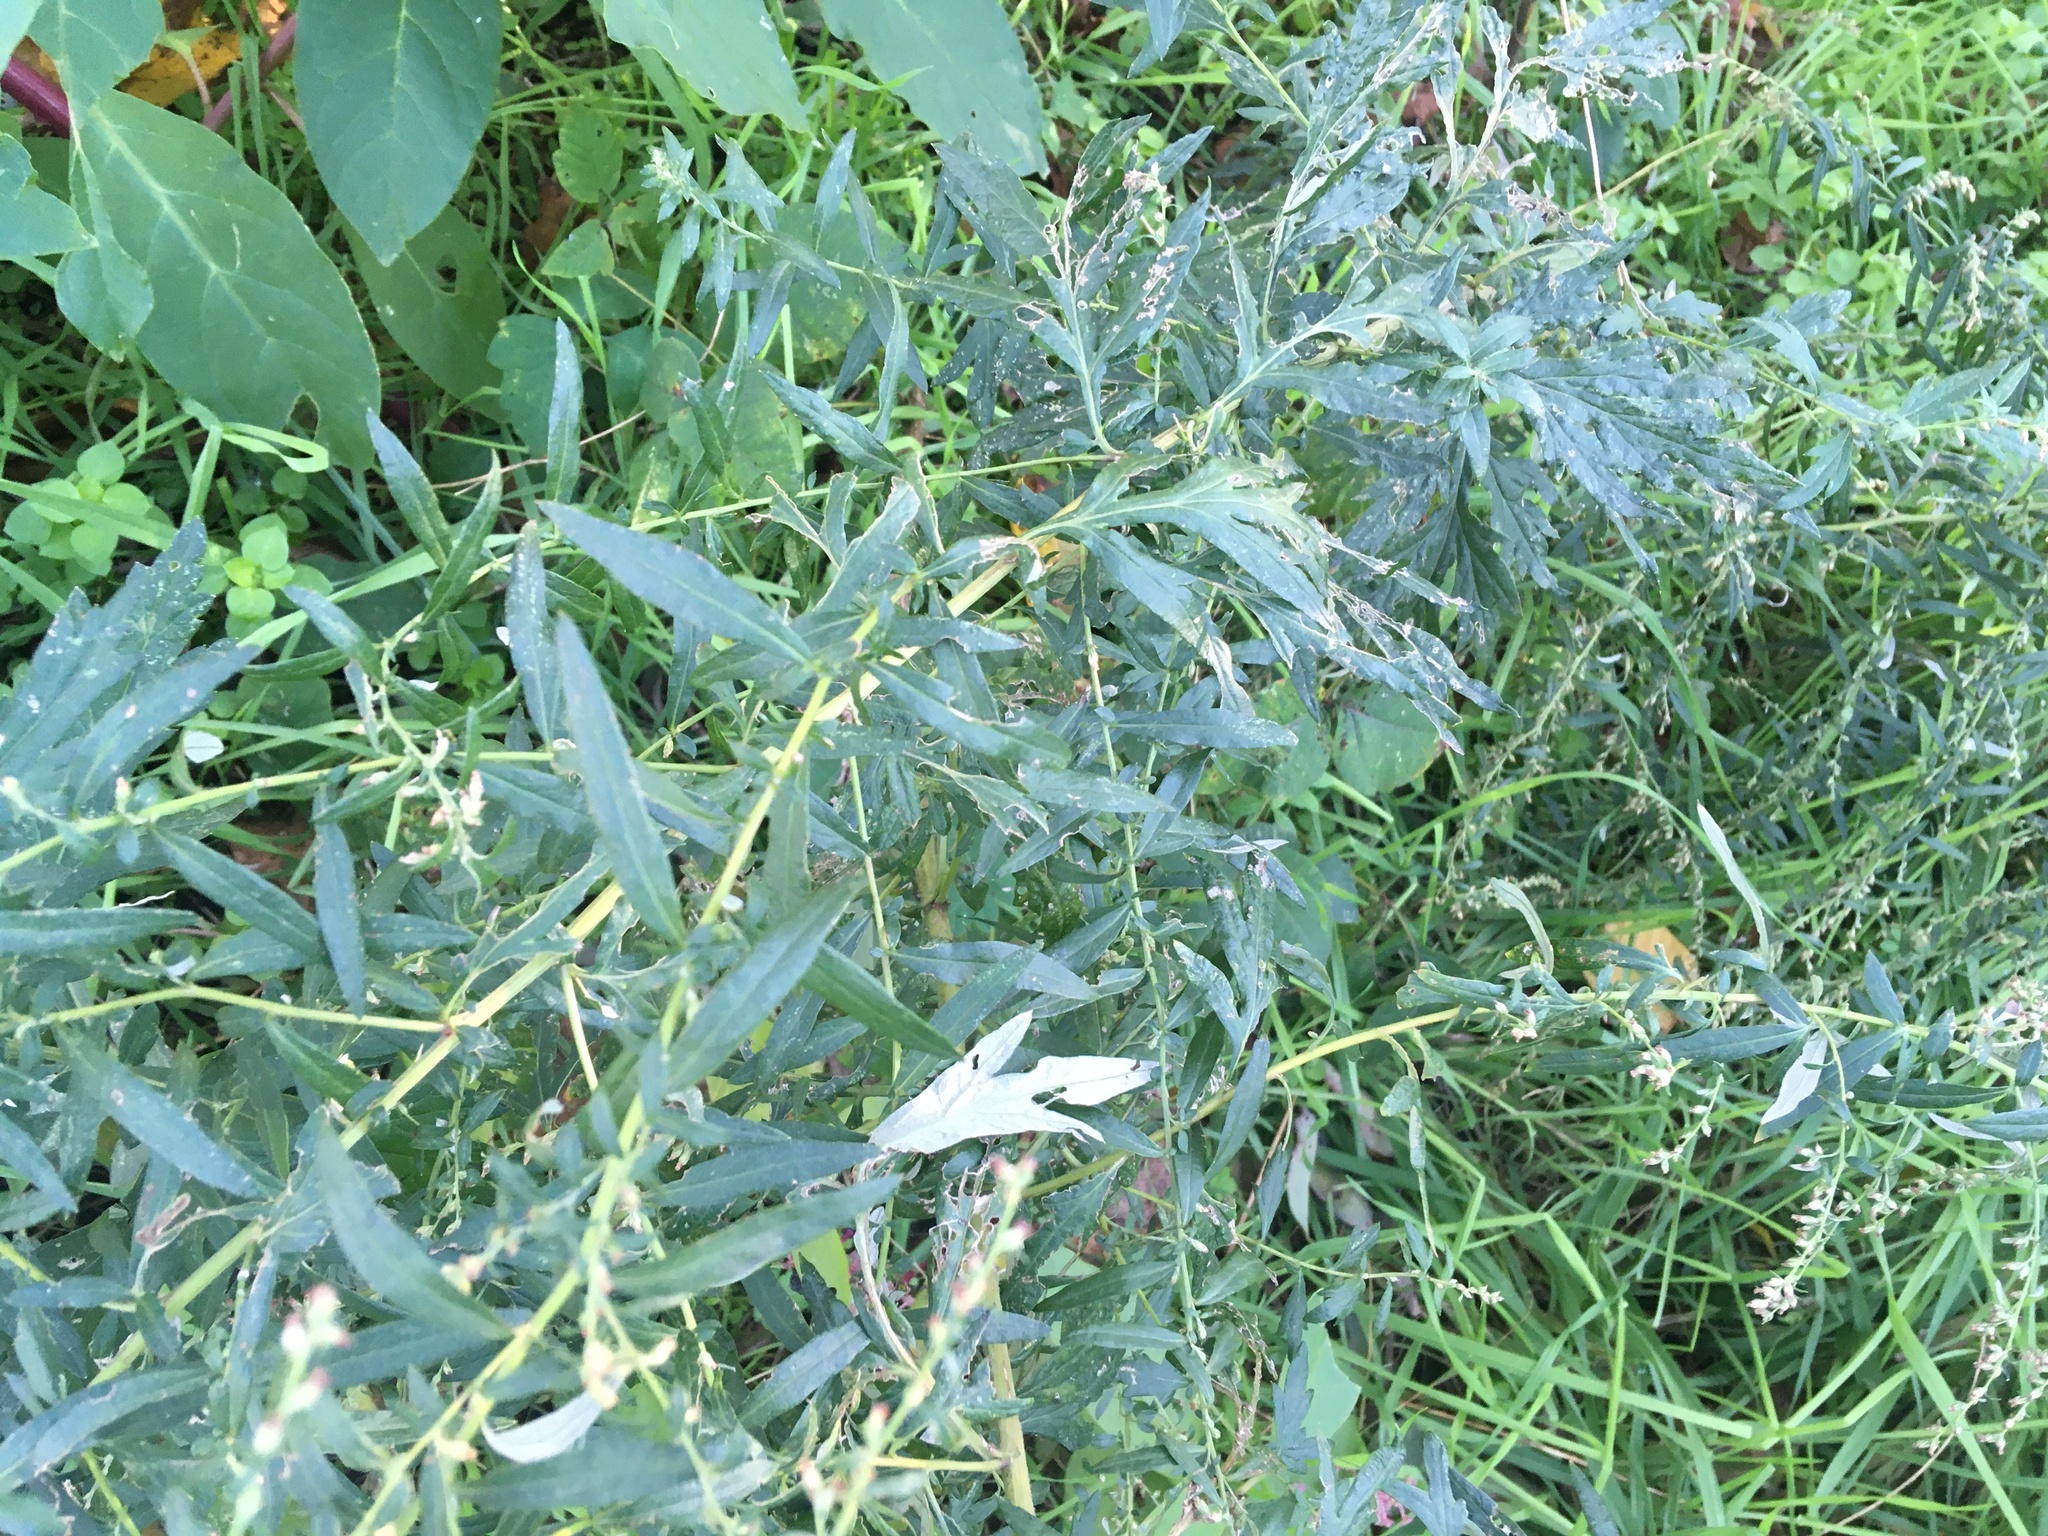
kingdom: Plantae
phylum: Tracheophyta
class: Magnoliopsida
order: Asterales
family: Asteraceae
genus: Artemisia
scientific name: Artemisia vulgaris
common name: Mugwort
